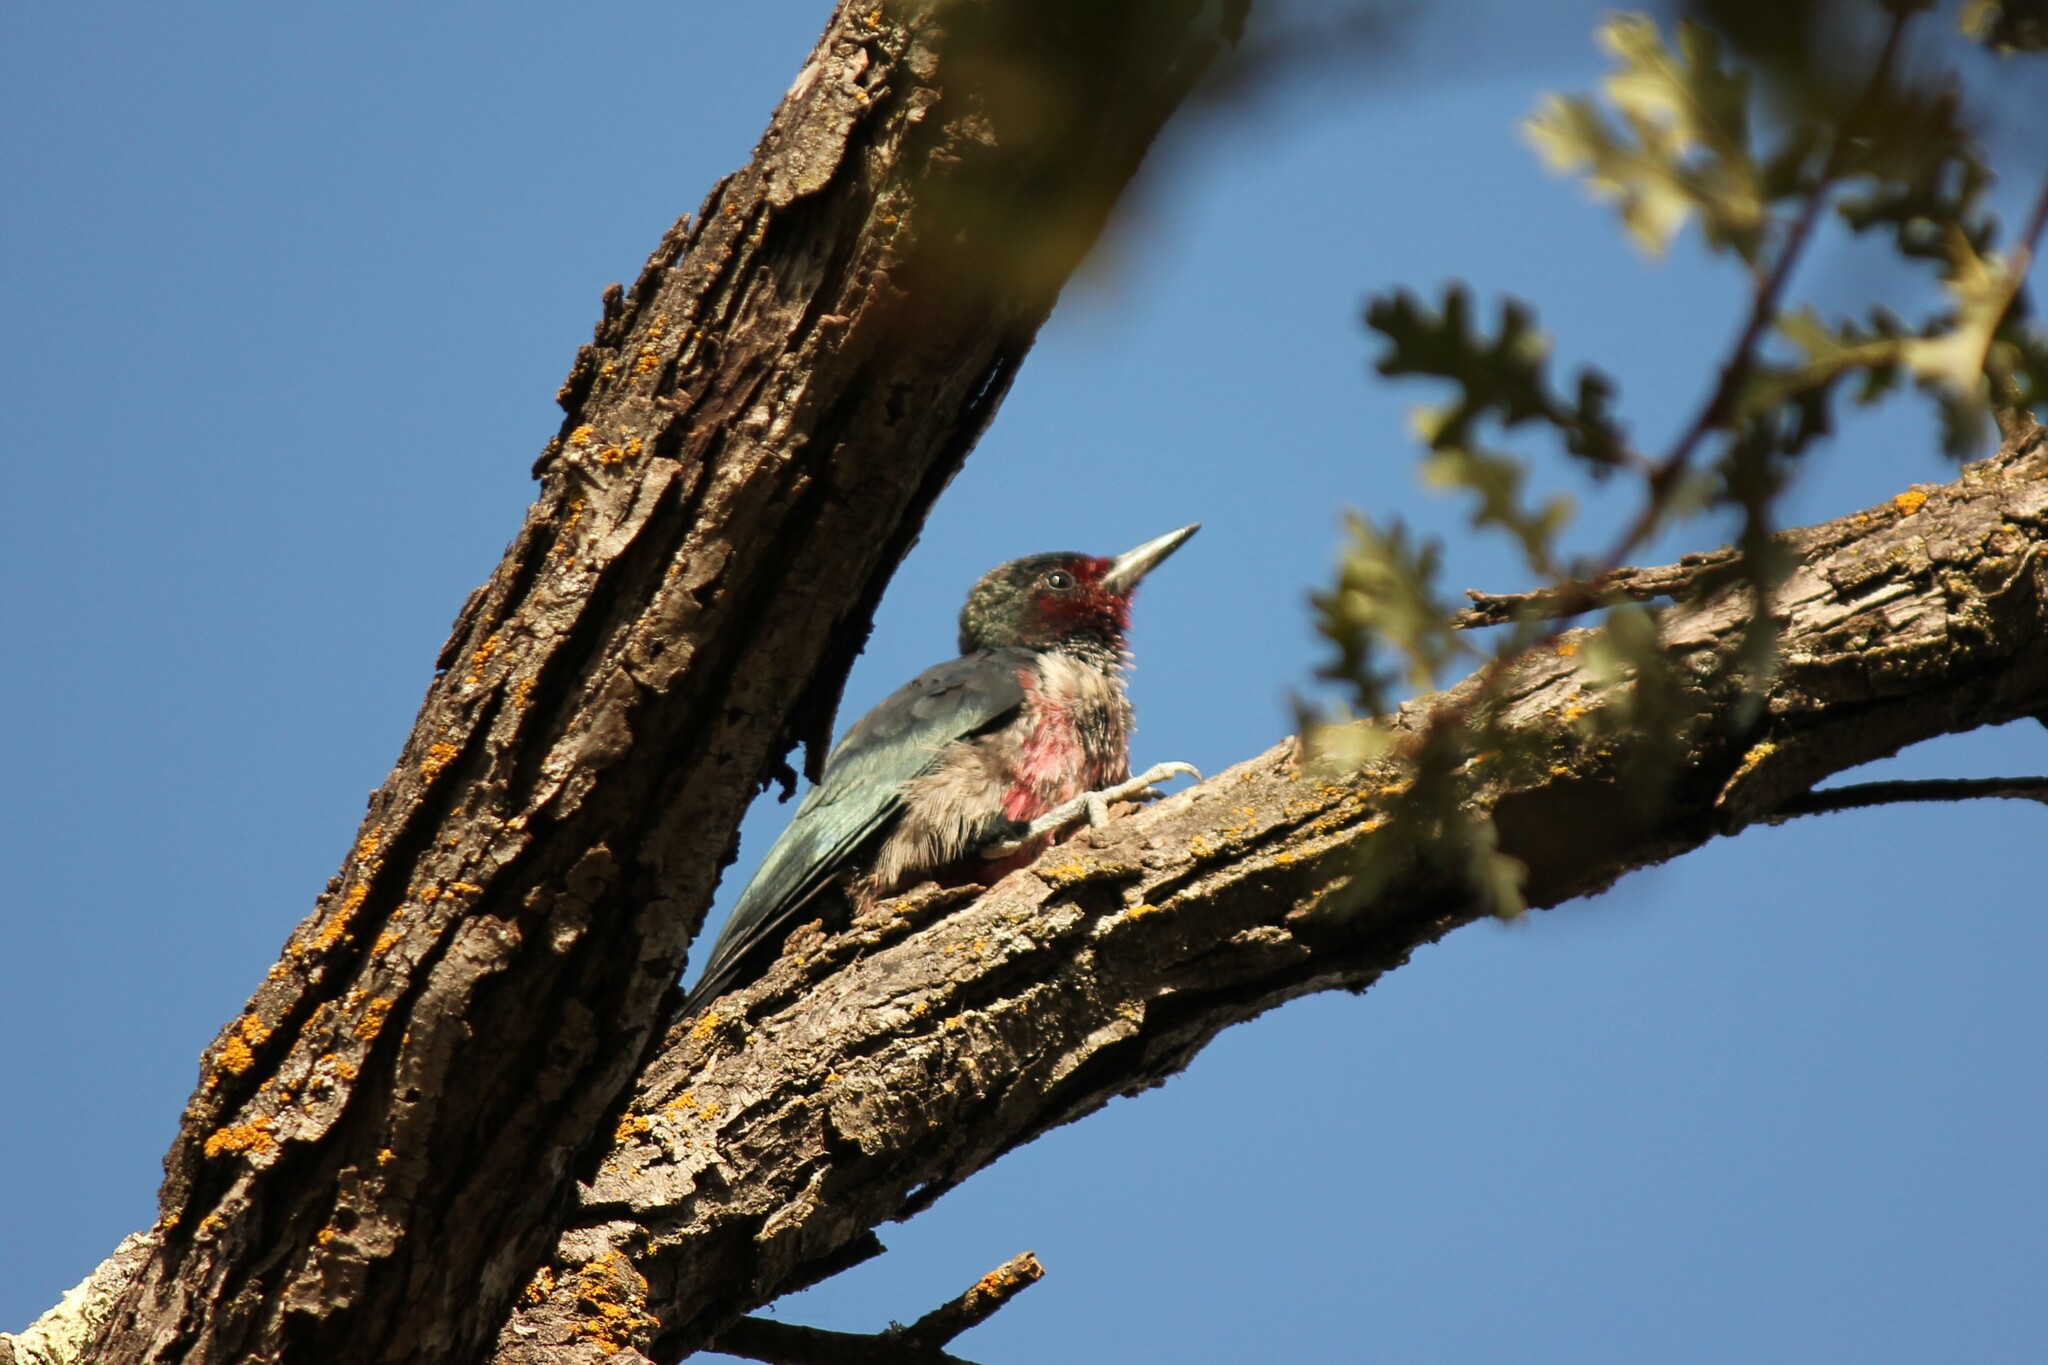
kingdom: Animalia
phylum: Chordata
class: Aves
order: Piciformes
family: Picidae
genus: Melanerpes
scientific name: Melanerpes lewis
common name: Lewis's woodpecker
